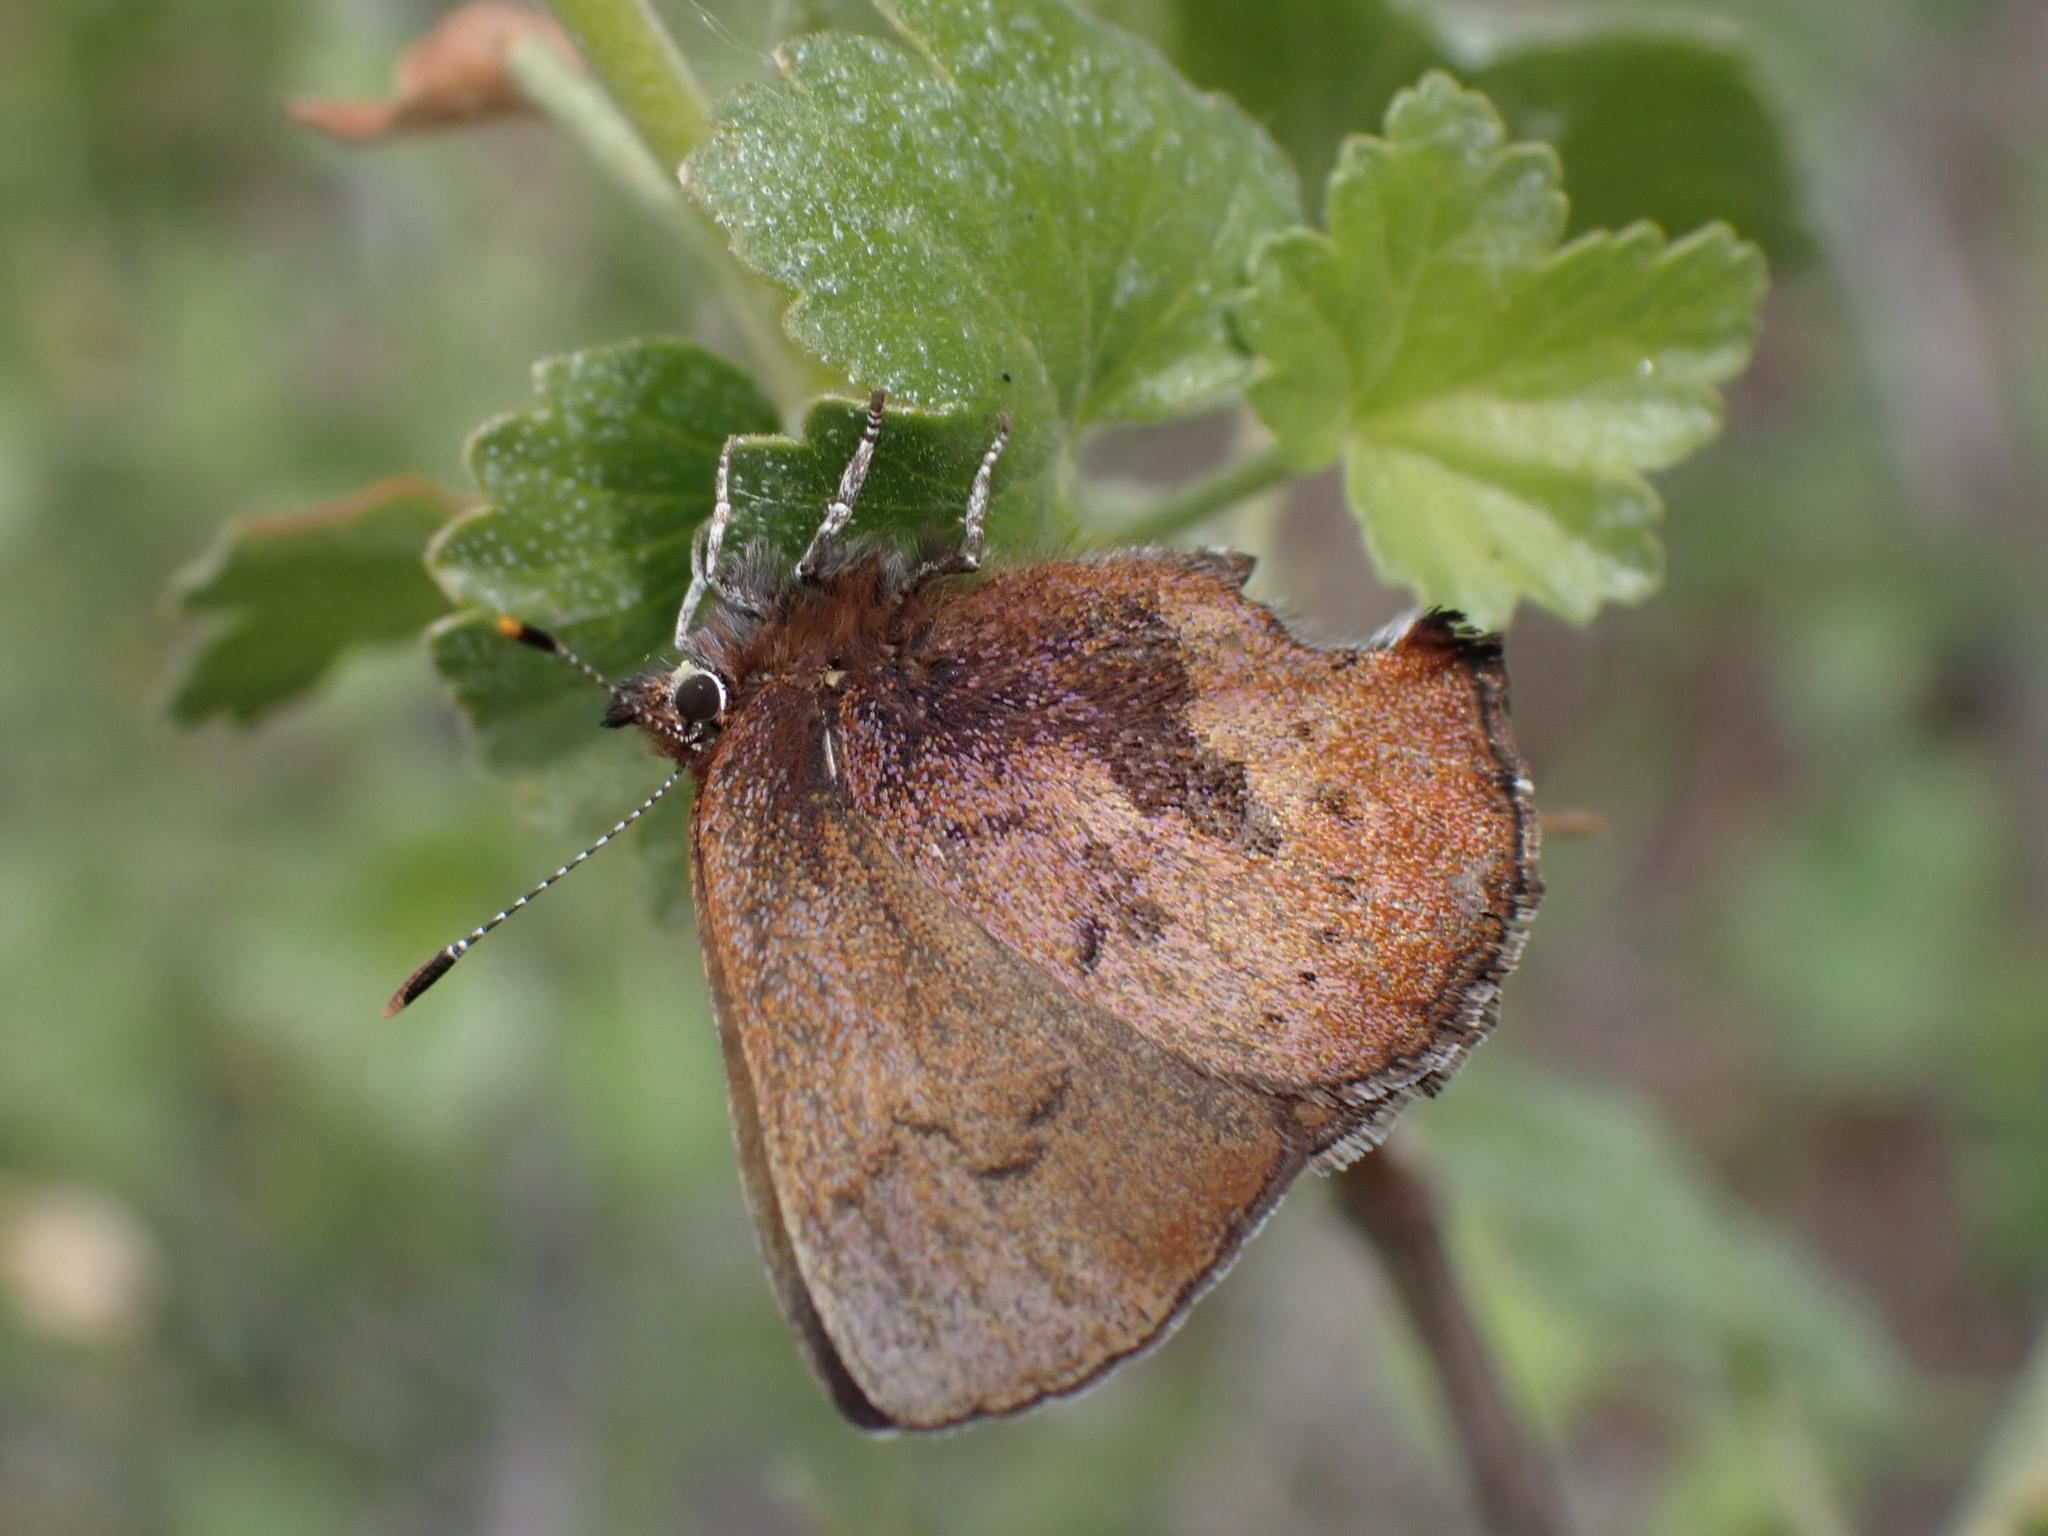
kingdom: Animalia
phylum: Arthropoda
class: Insecta
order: Lepidoptera
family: Lycaenidae
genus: Incisalia
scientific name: Incisalia irioides
